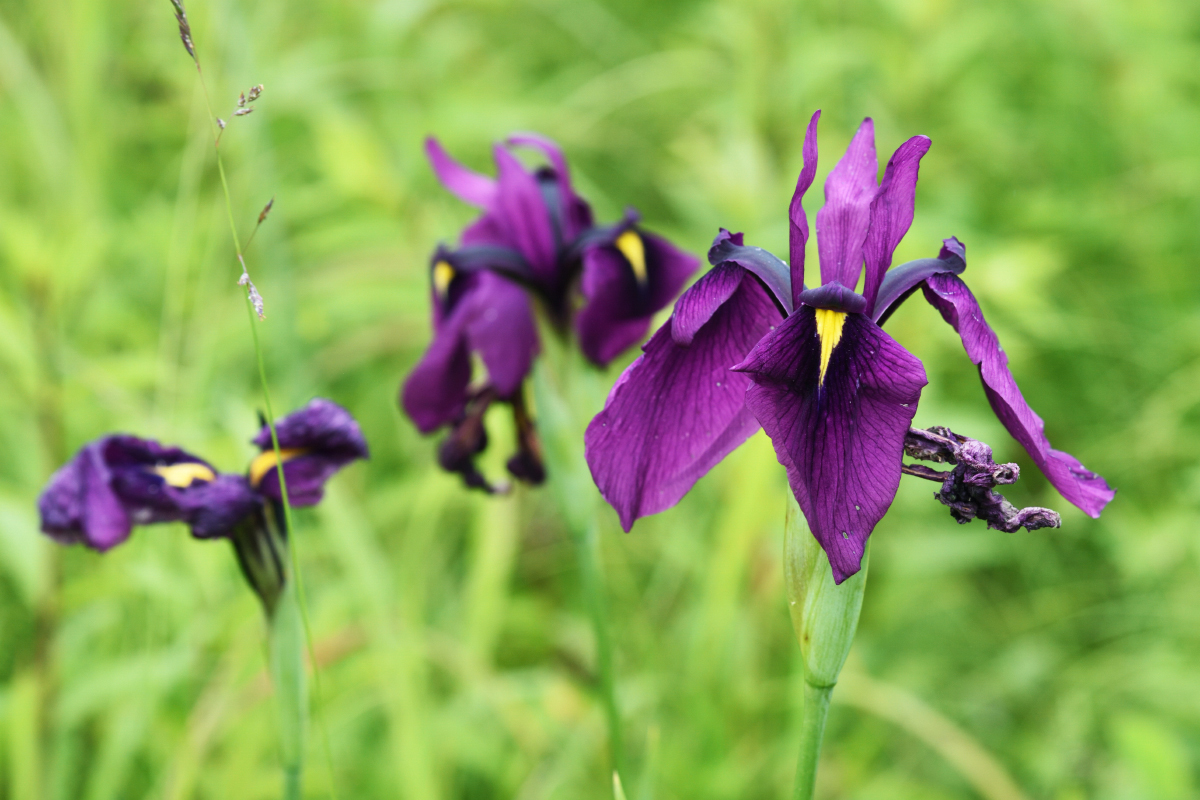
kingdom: Plantae
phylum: Tracheophyta
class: Liliopsida
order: Asparagales
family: Iridaceae
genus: Iris
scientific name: Iris ensata
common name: Beaked iris
